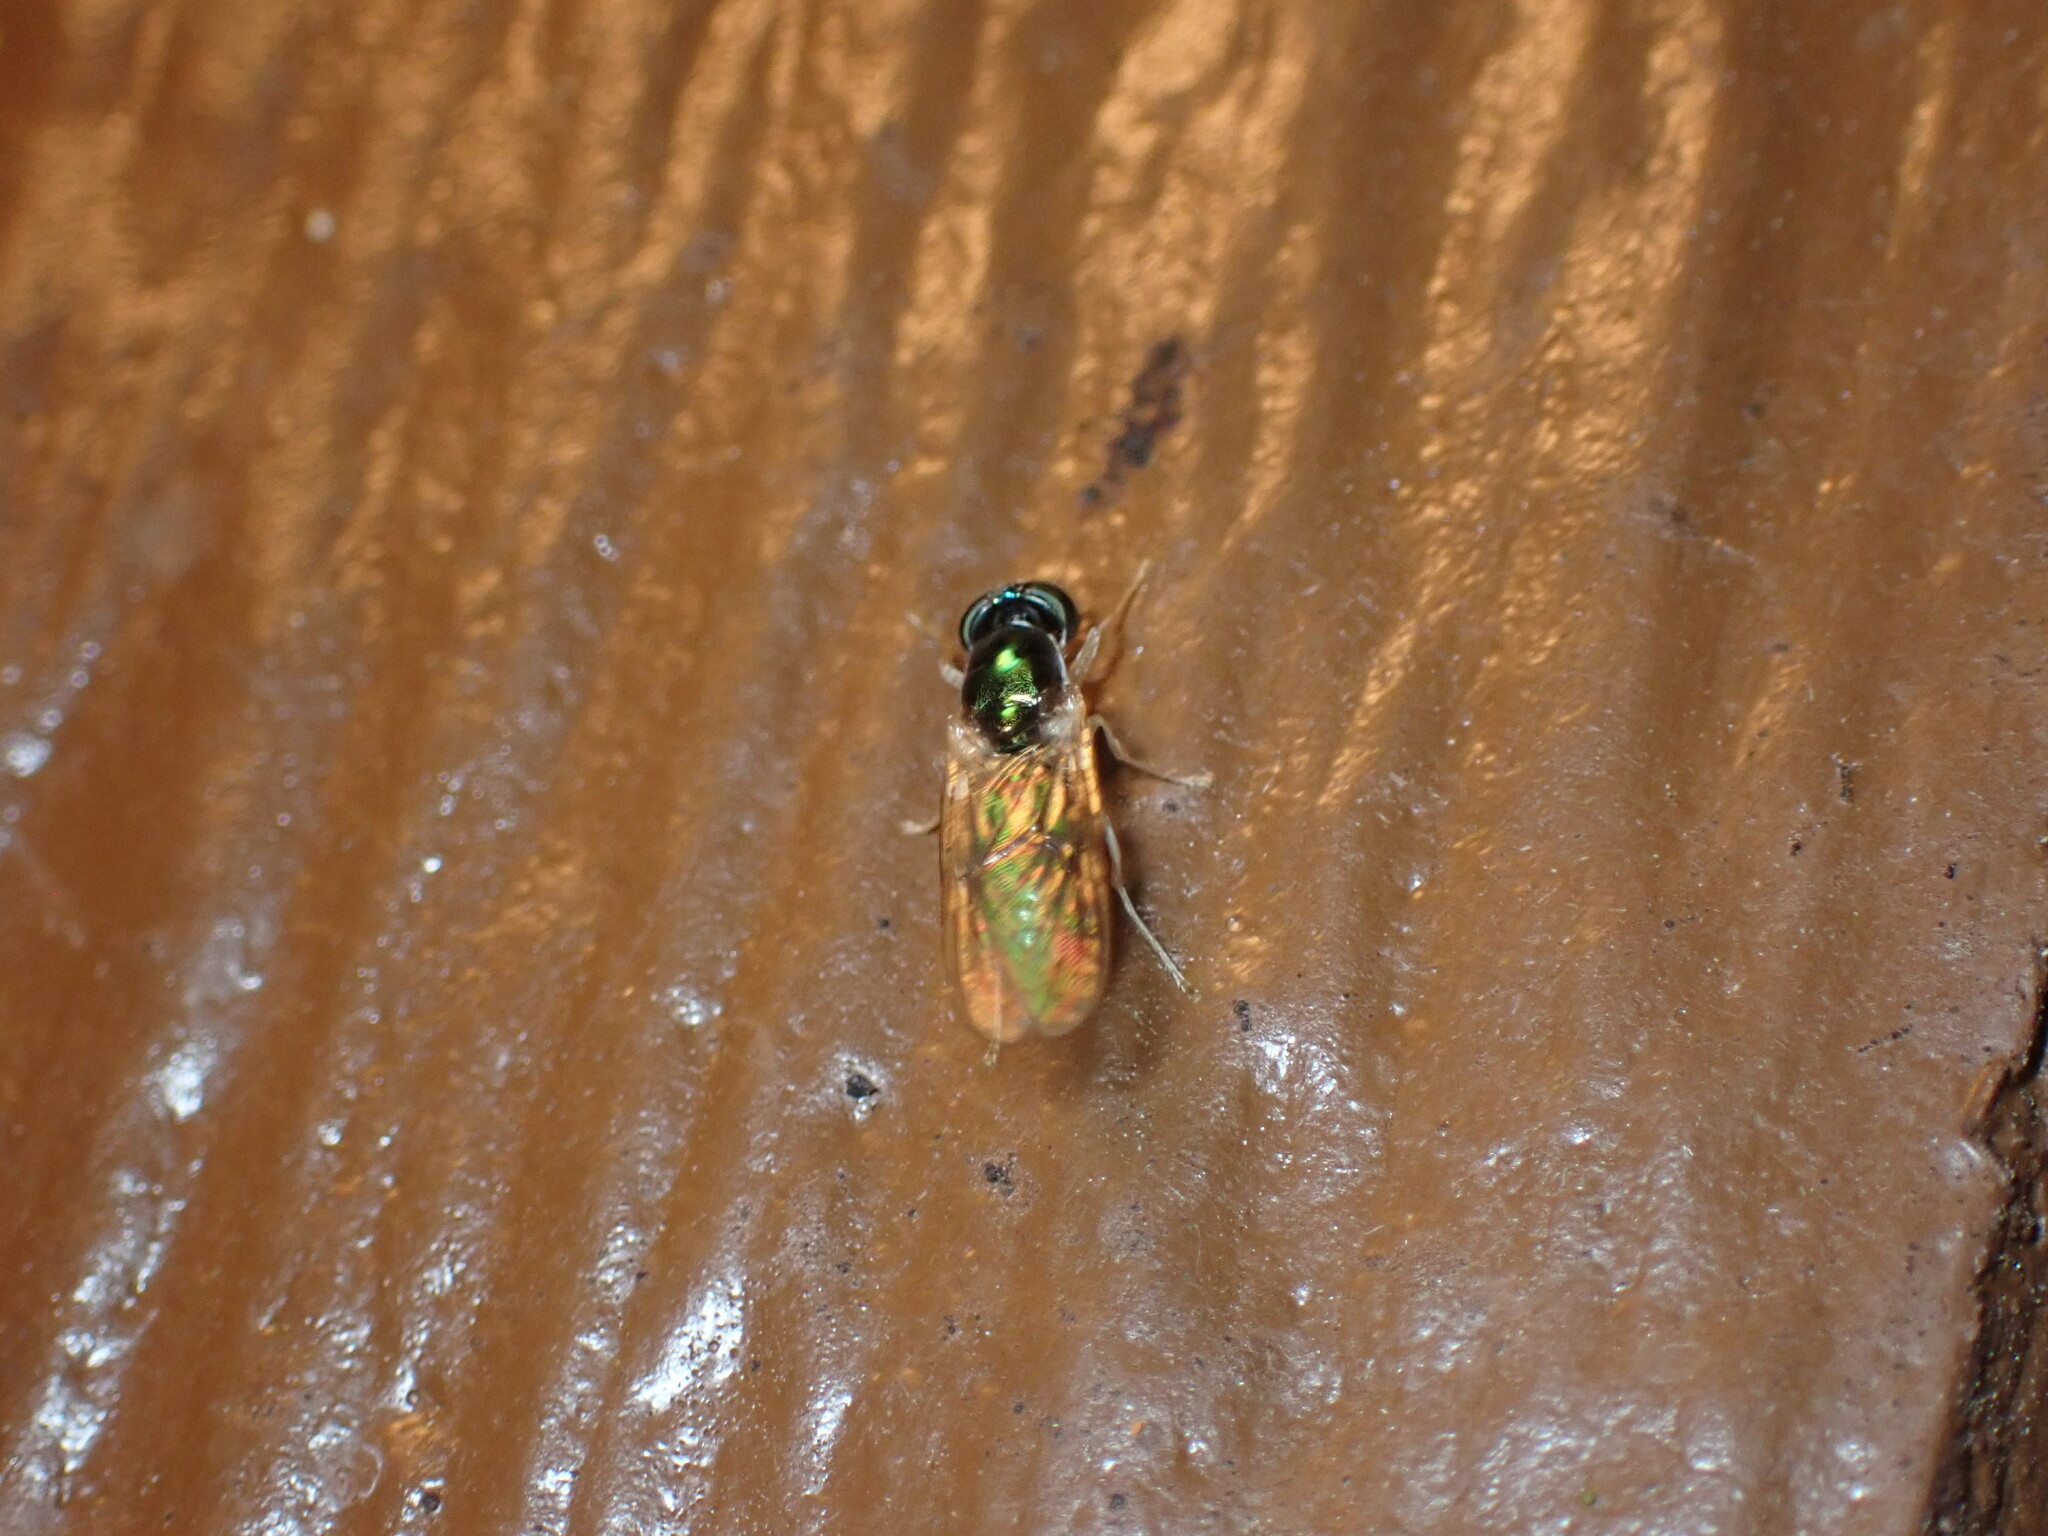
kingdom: Animalia
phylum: Arthropoda
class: Insecta
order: Diptera
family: Stratiomyidae
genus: Cephalochrysa
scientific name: Cephalochrysa nigricornis
